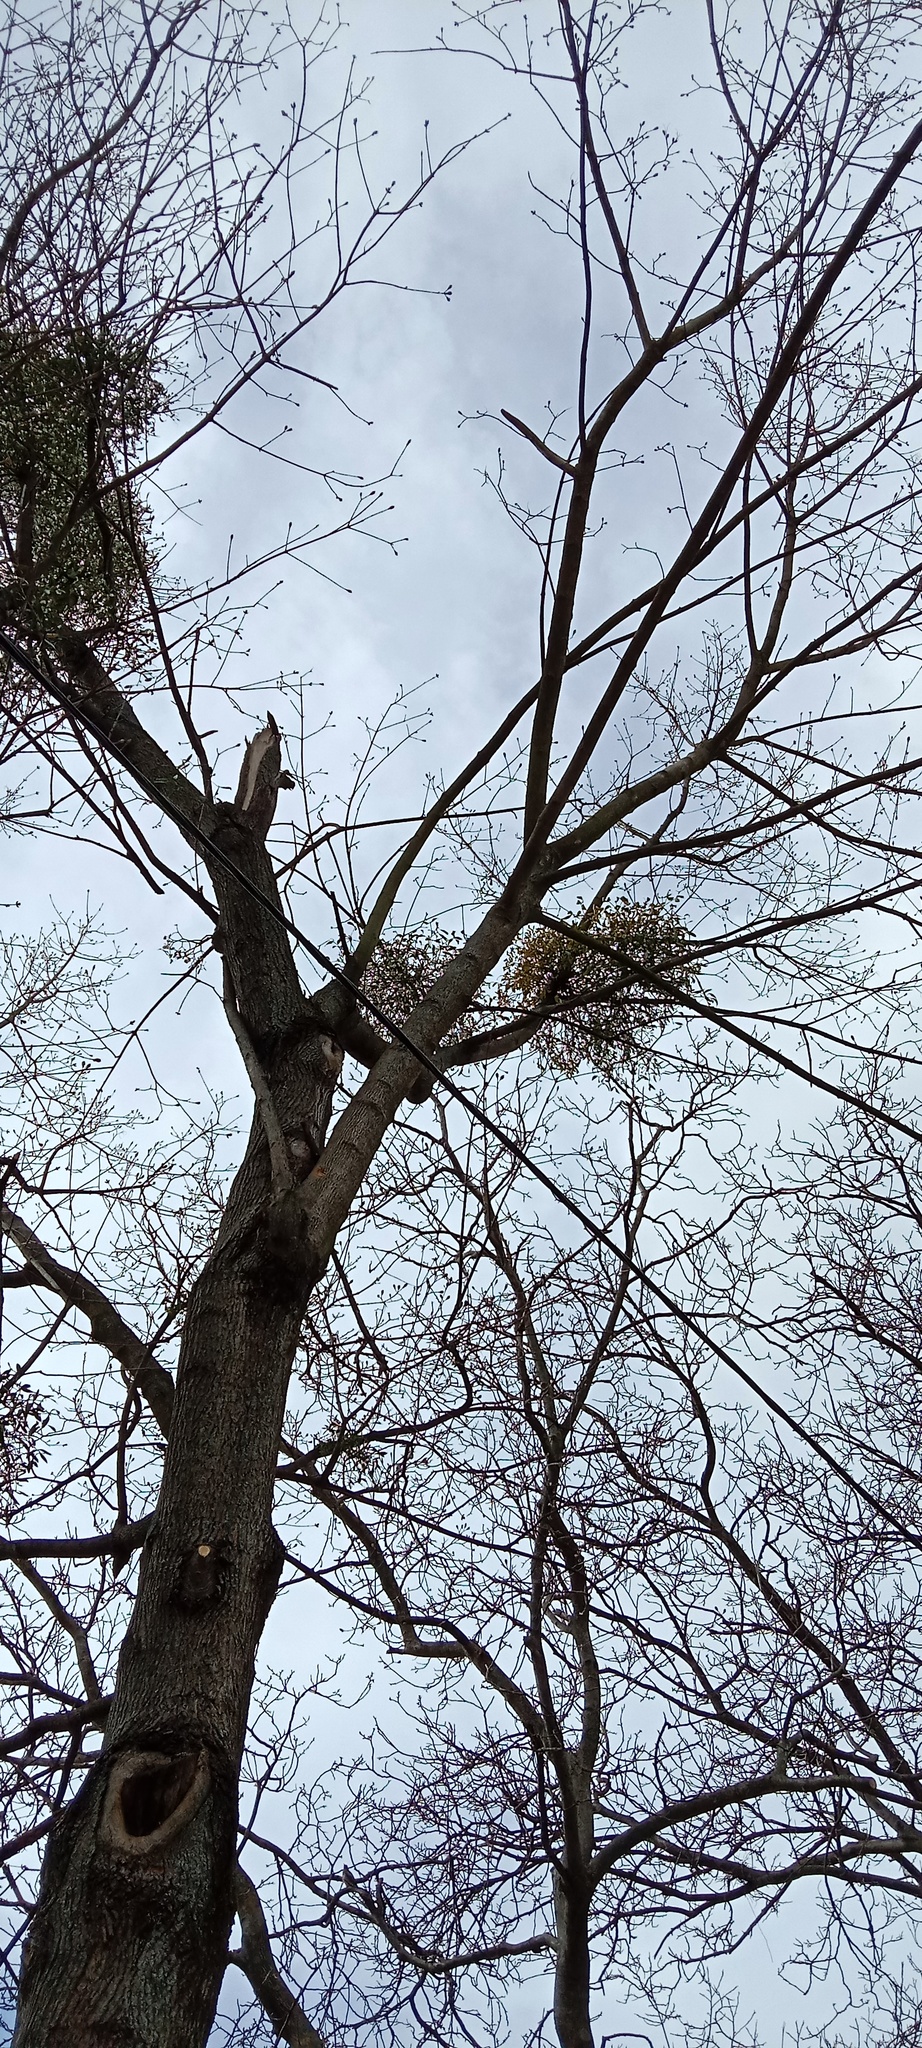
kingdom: Plantae
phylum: Tracheophyta
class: Magnoliopsida
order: Santalales
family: Viscaceae
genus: Viscum
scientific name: Viscum album
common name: Mistletoe
